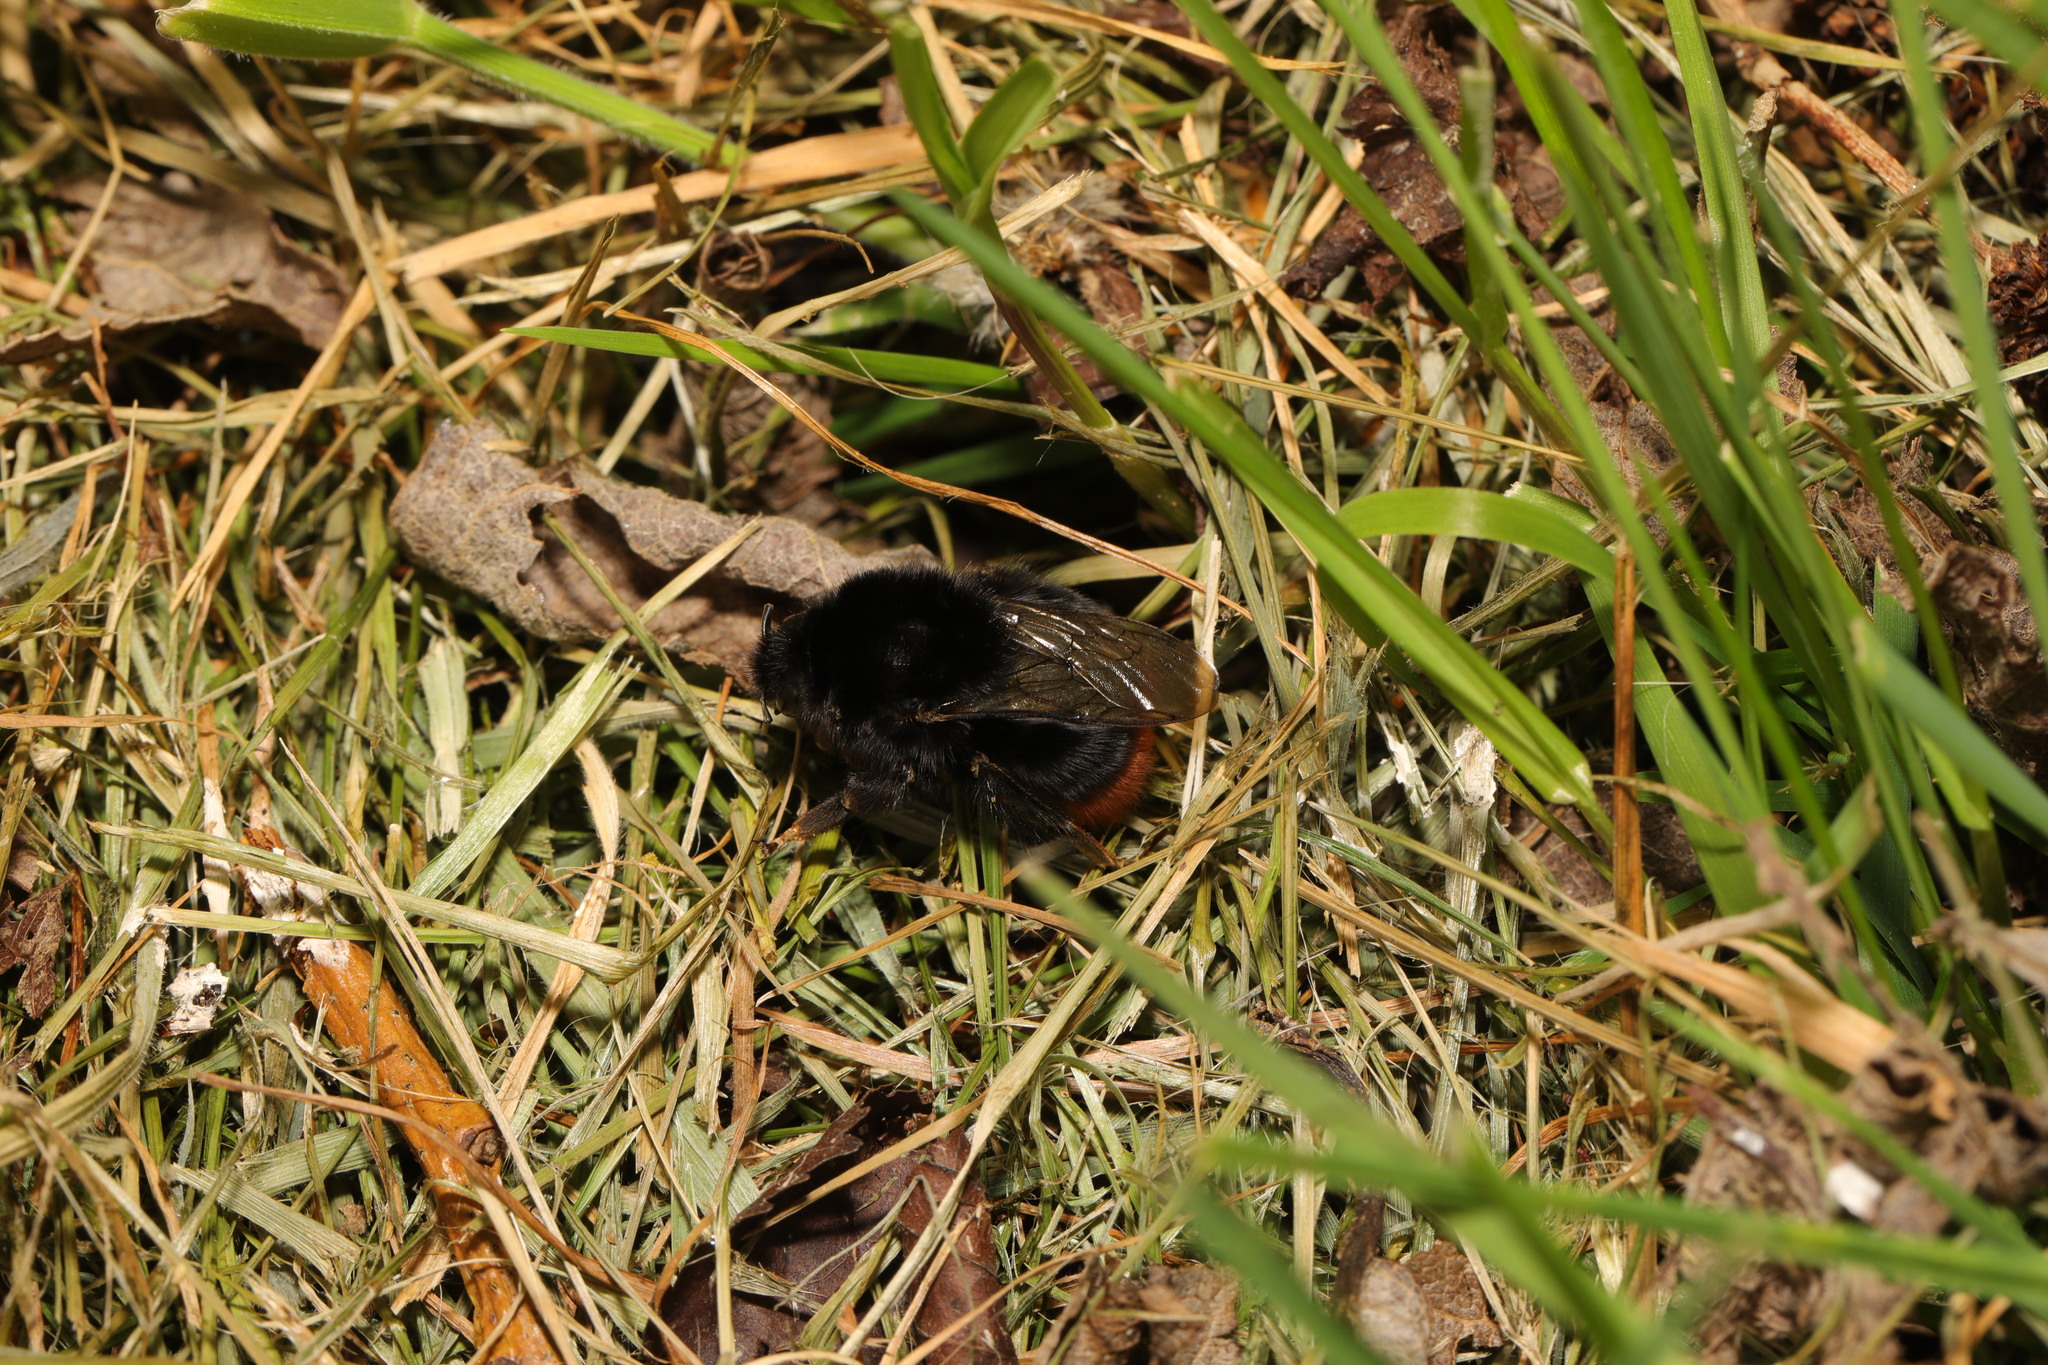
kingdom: Animalia
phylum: Arthropoda
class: Insecta
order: Hymenoptera
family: Apidae
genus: Bombus
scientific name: Bombus lapidarius
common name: Large red-tailed humble-bee
